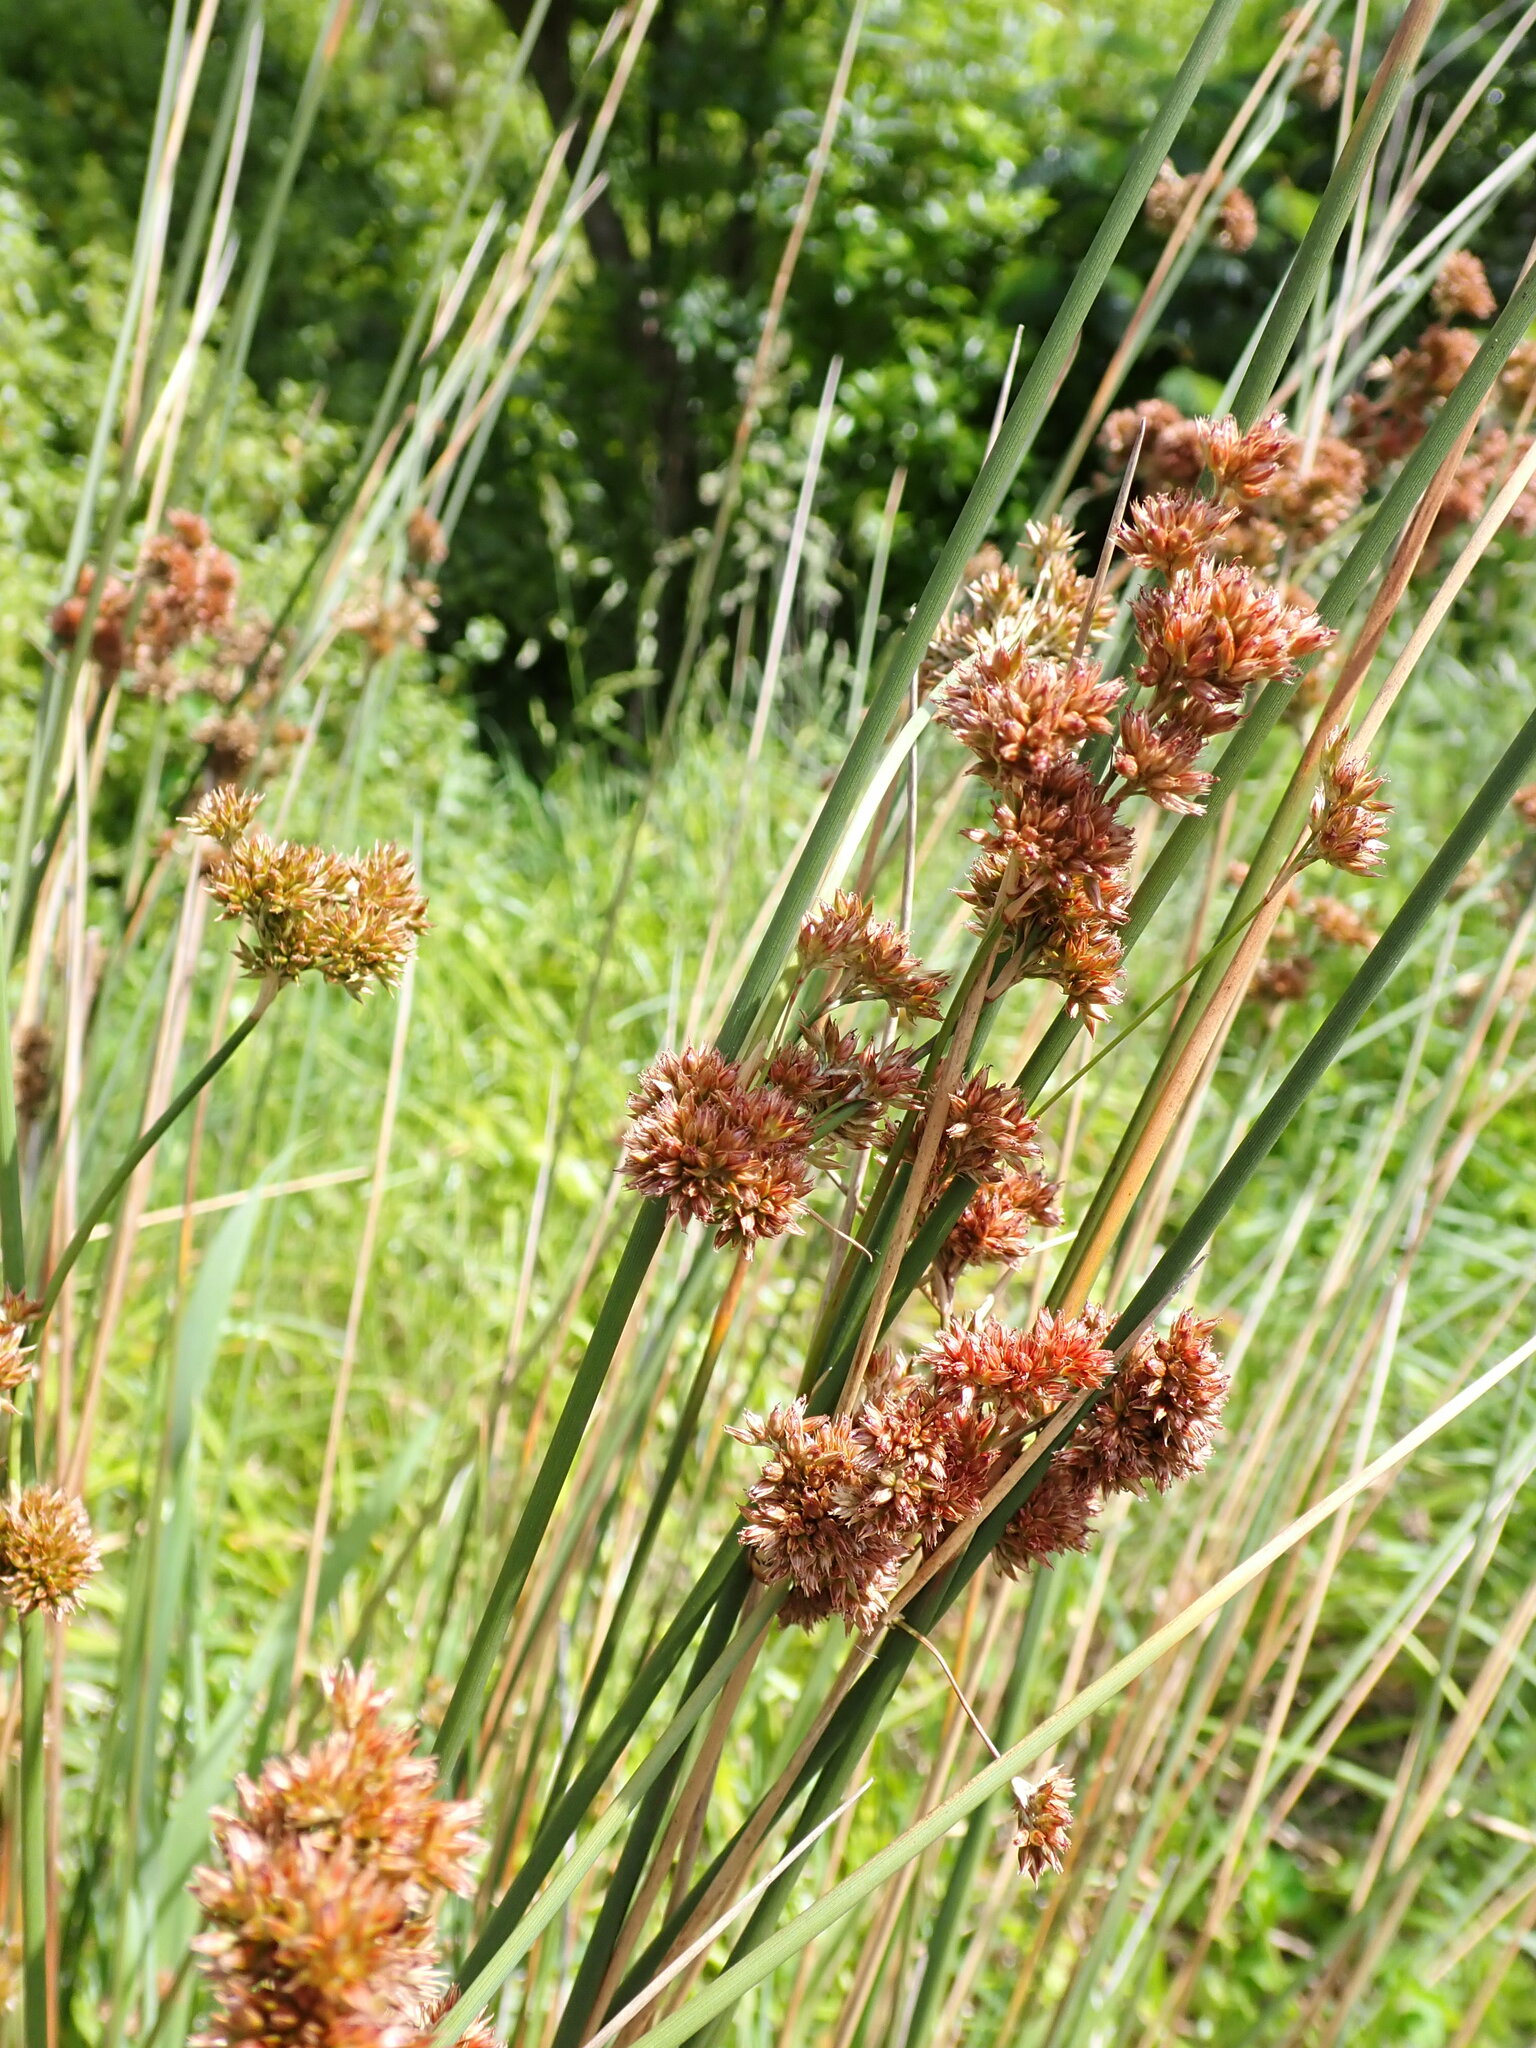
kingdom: Plantae
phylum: Tracheophyta
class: Liliopsida
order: Poales
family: Juncaceae
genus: Juncus
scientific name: Juncus australis
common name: Austral rush
